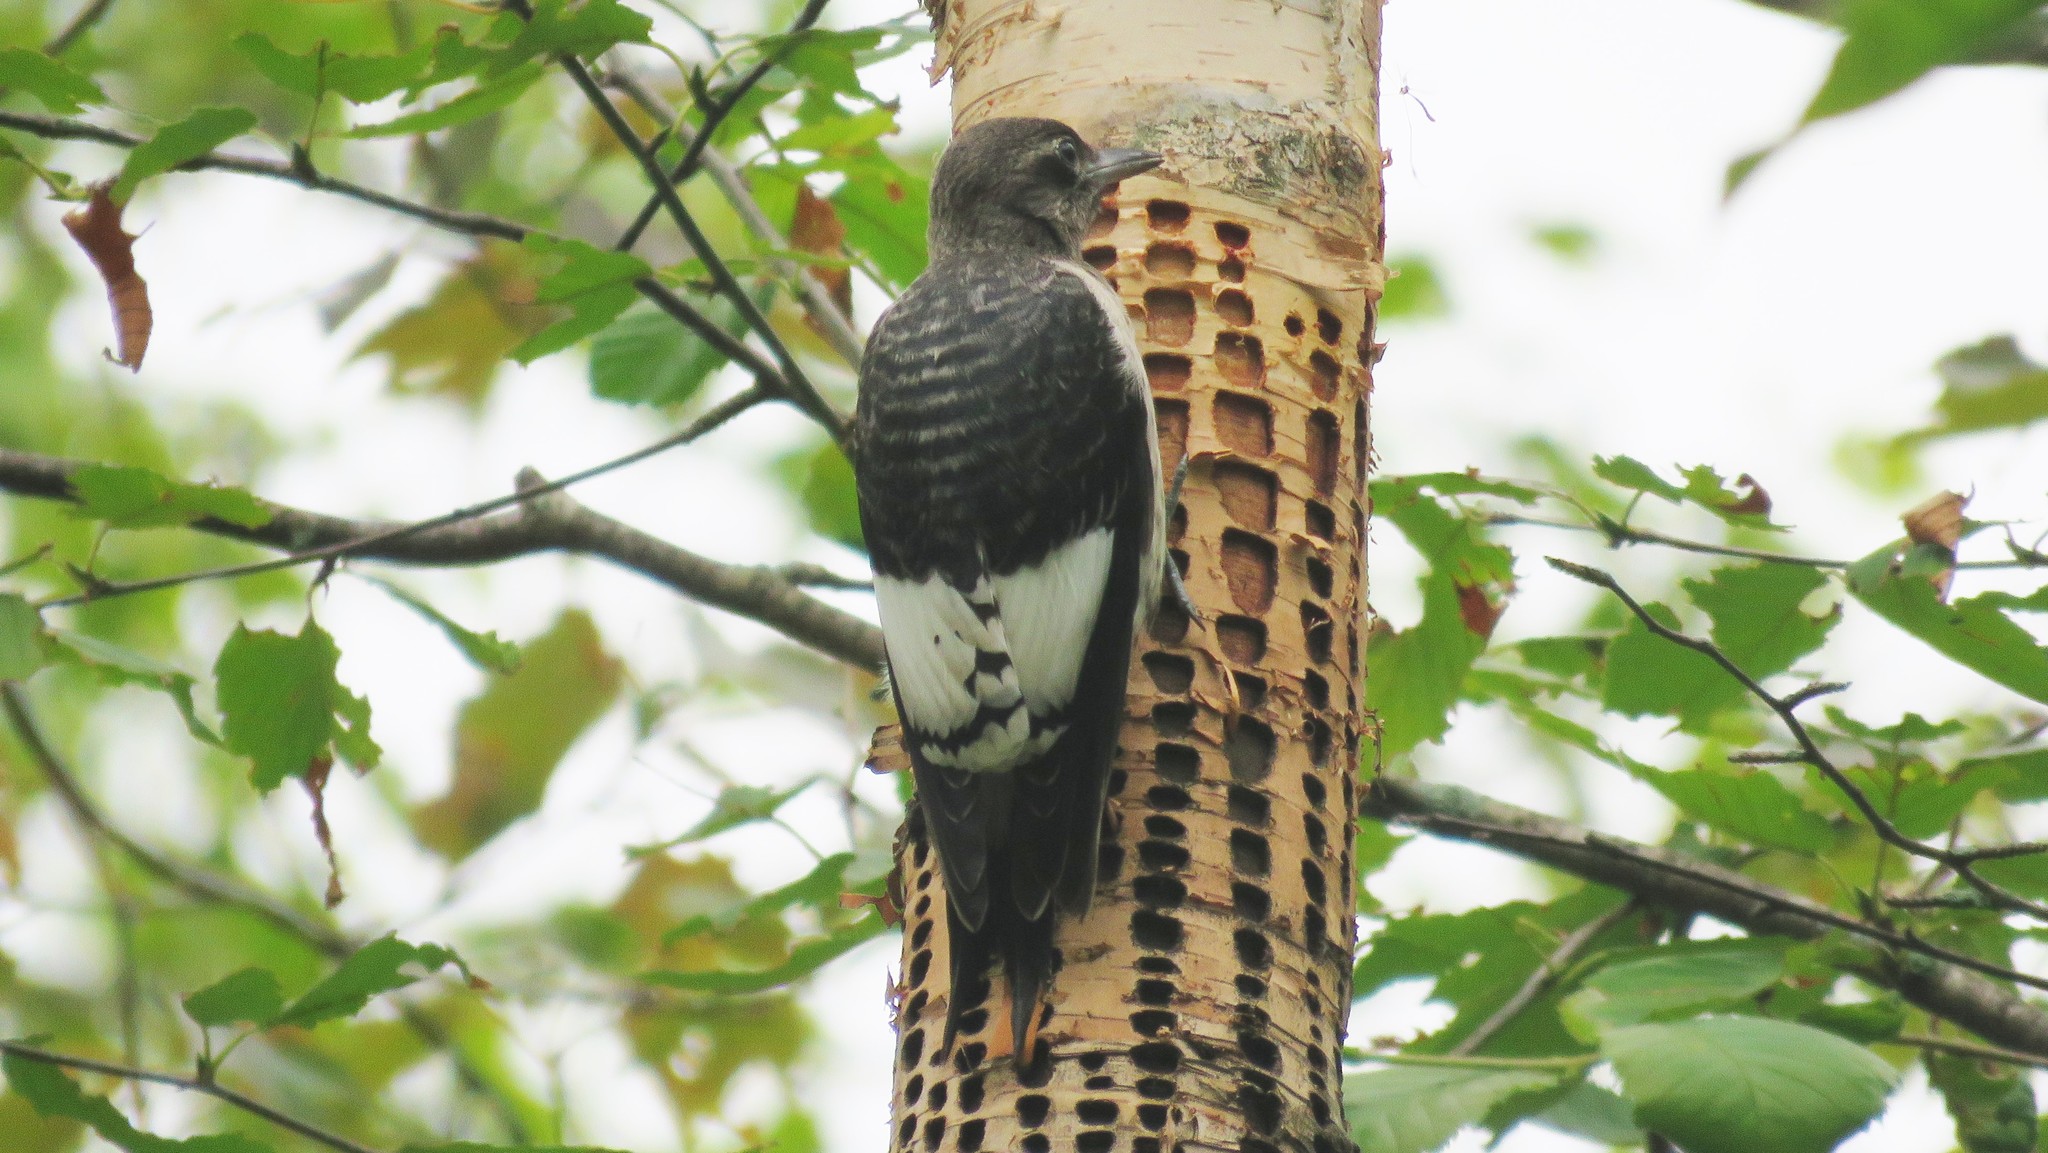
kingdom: Animalia
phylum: Chordata
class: Aves
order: Piciformes
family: Picidae
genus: Melanerpes
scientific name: Melanerpes erythrocephalus
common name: Red-headed woodpecker
